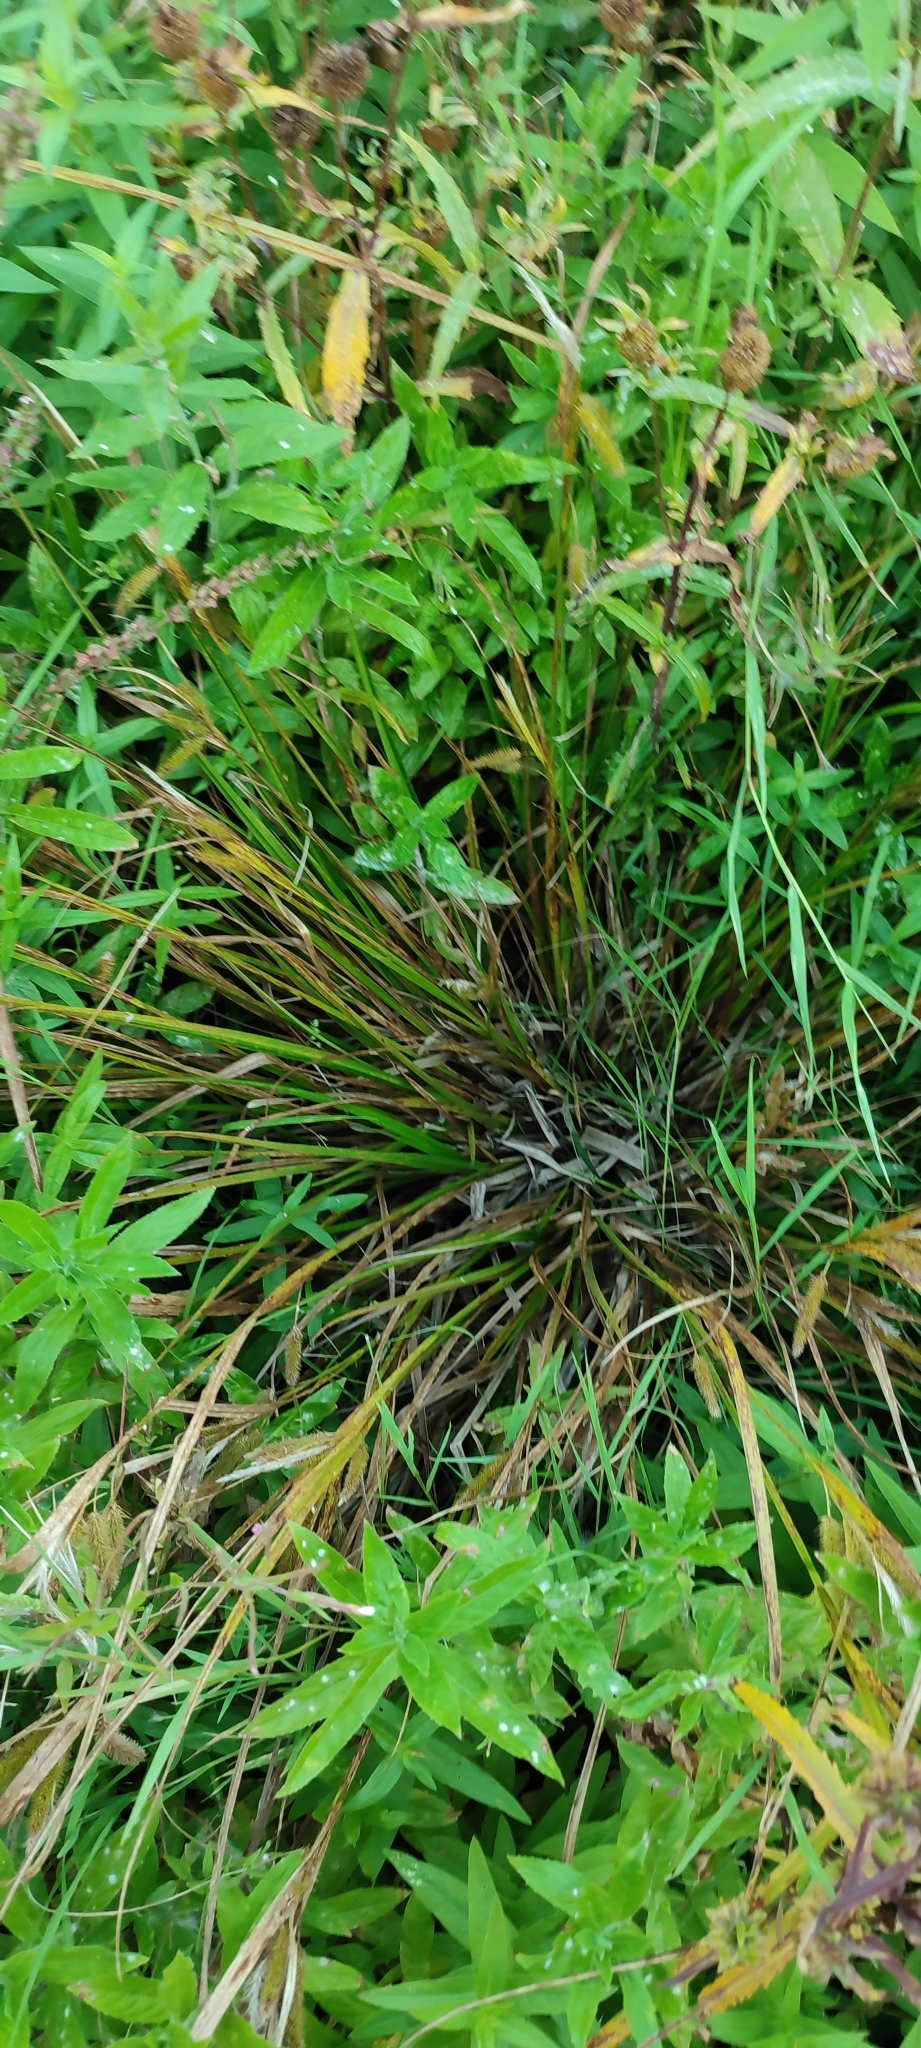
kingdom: Plantae
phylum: Tracheophyta
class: Liliopsida
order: Poales
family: Cyperaceae
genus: Carex
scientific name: Carex pseudocyperus
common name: Cyperus sedge
